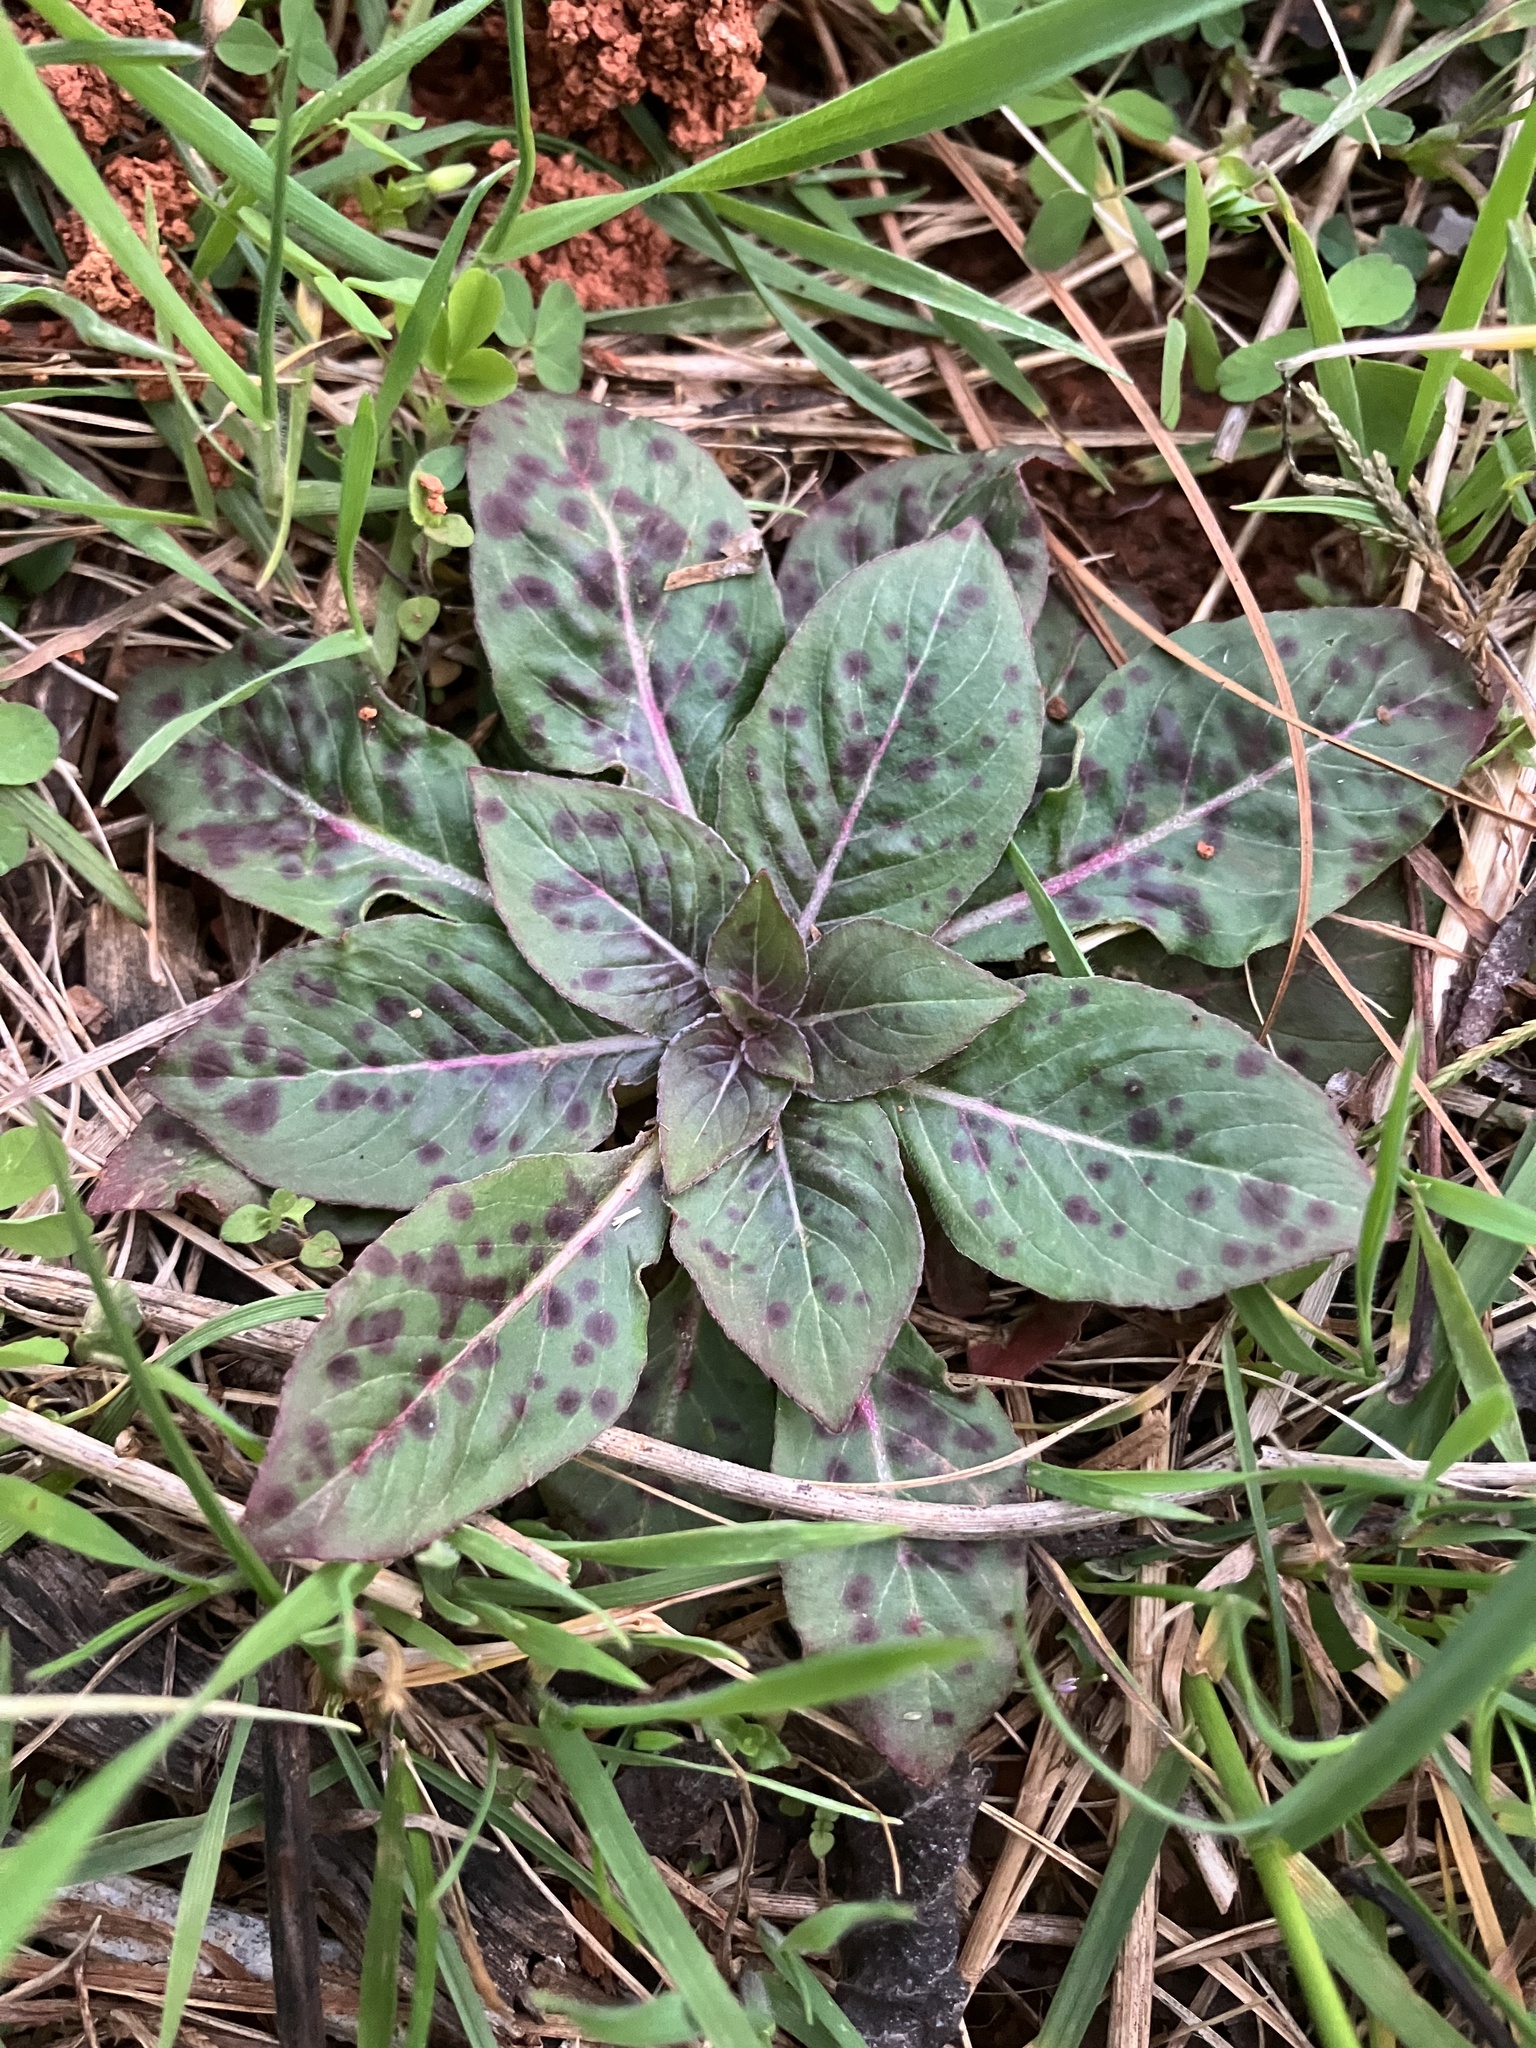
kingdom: Plantae
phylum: Tracheophyta
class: Magnoliopsida
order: Myrtales
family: Onagraceae
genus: Oenothera
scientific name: Oenothera biennis
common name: Common evening-primrose
